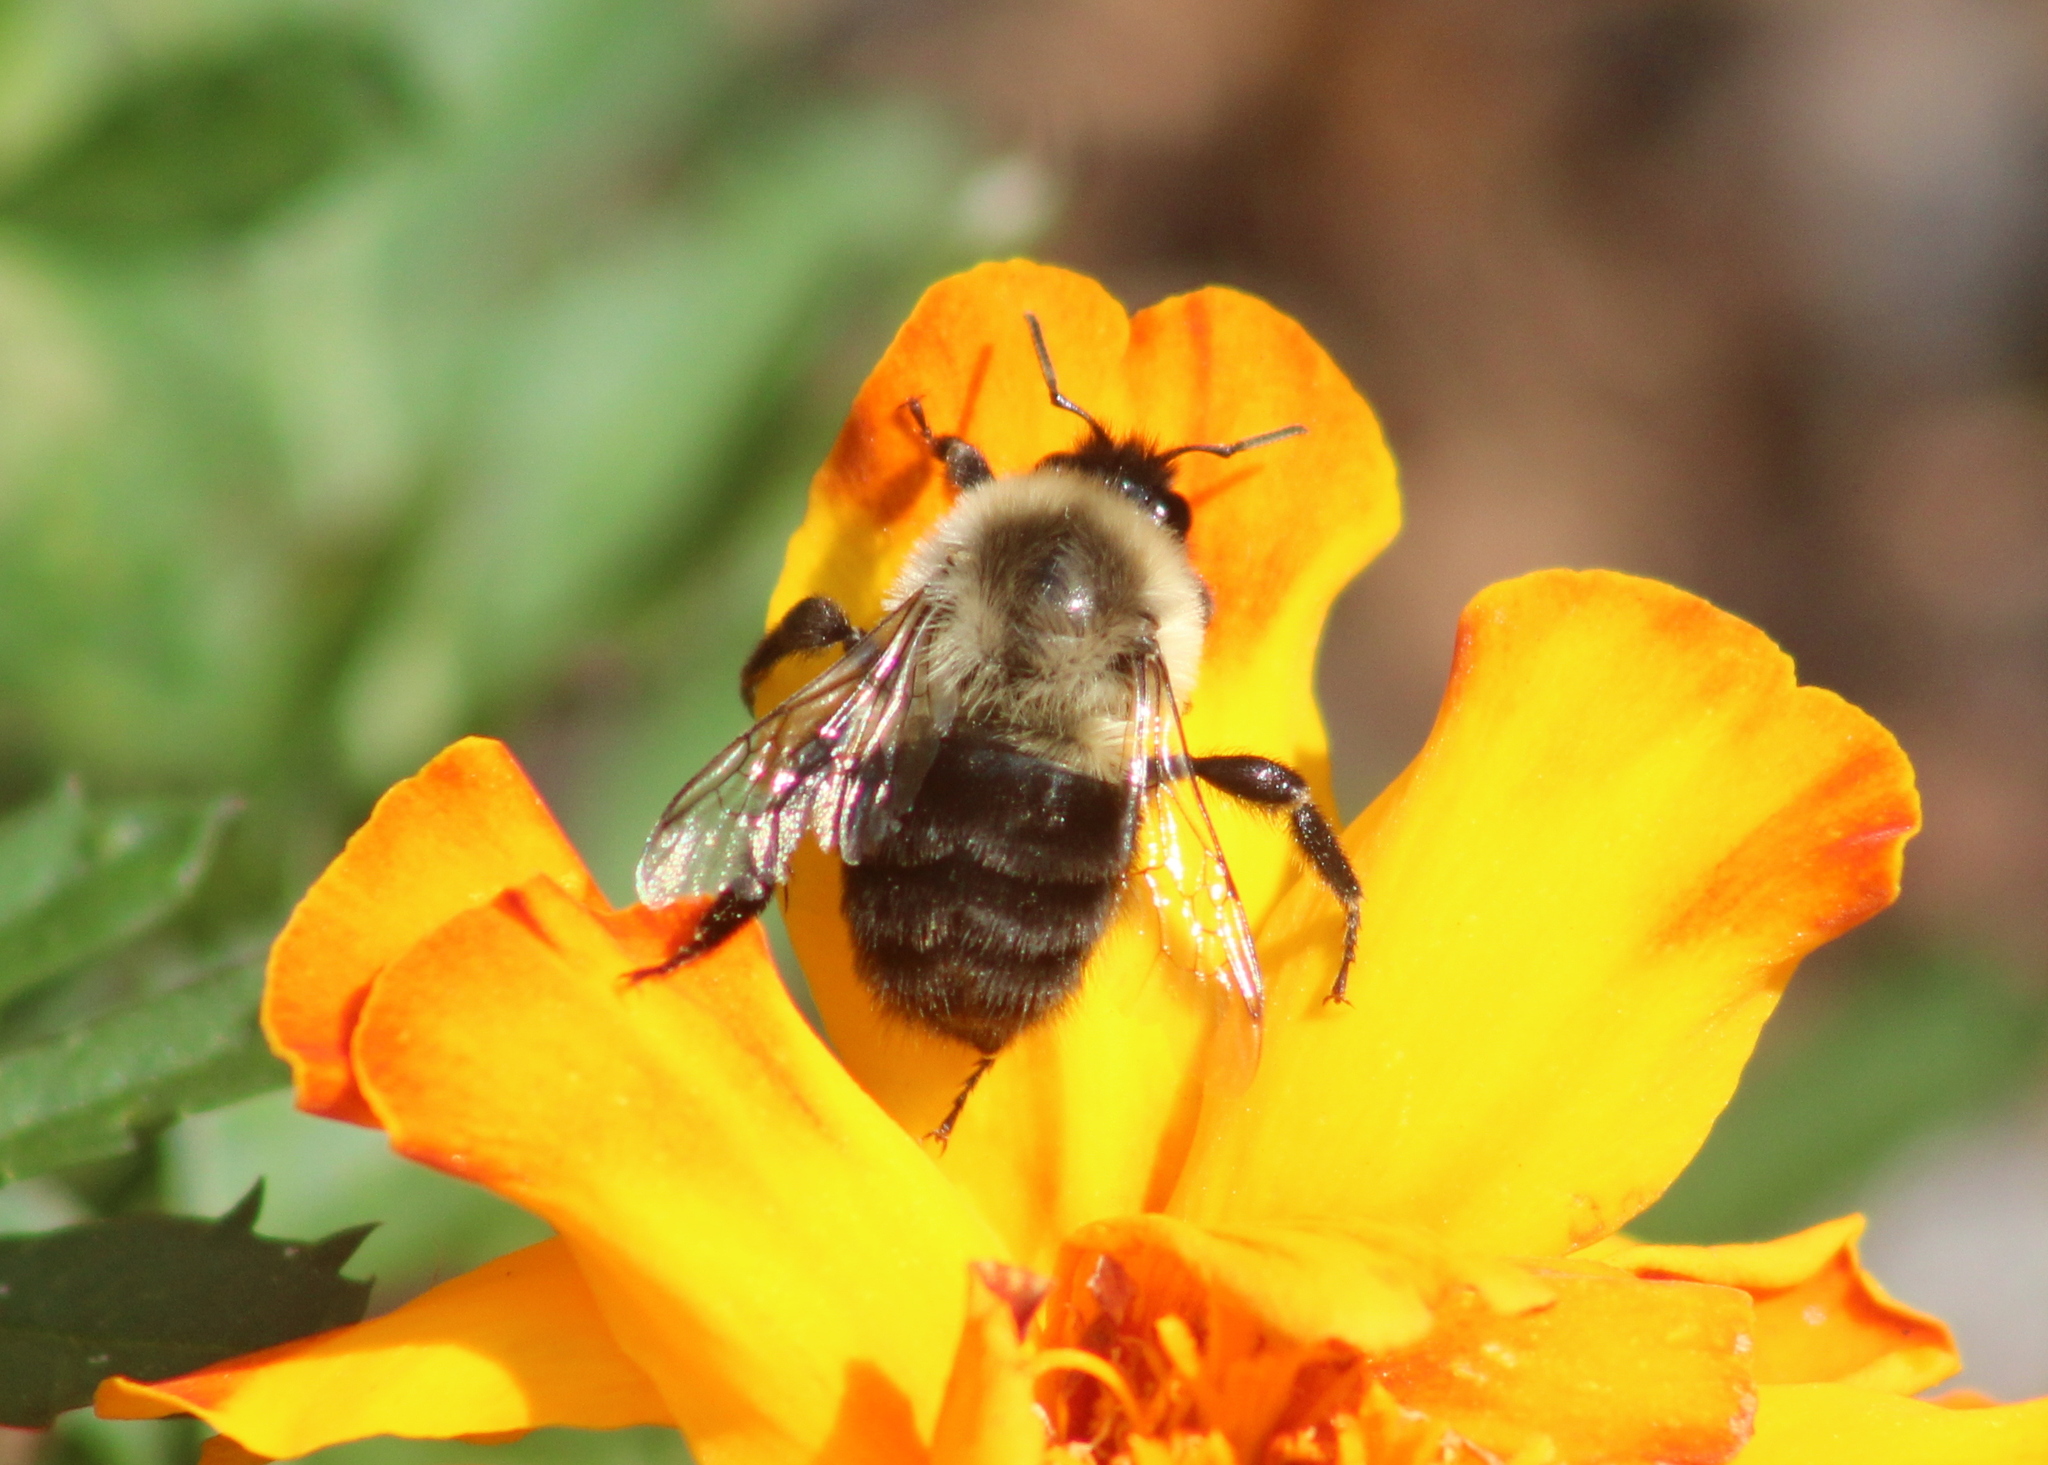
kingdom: Animalia
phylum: Arthropoda
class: Insecta
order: Hymenoptera
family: Apidae
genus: Bombus
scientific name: Bombus impatiens
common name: Common eastern bumble bee
